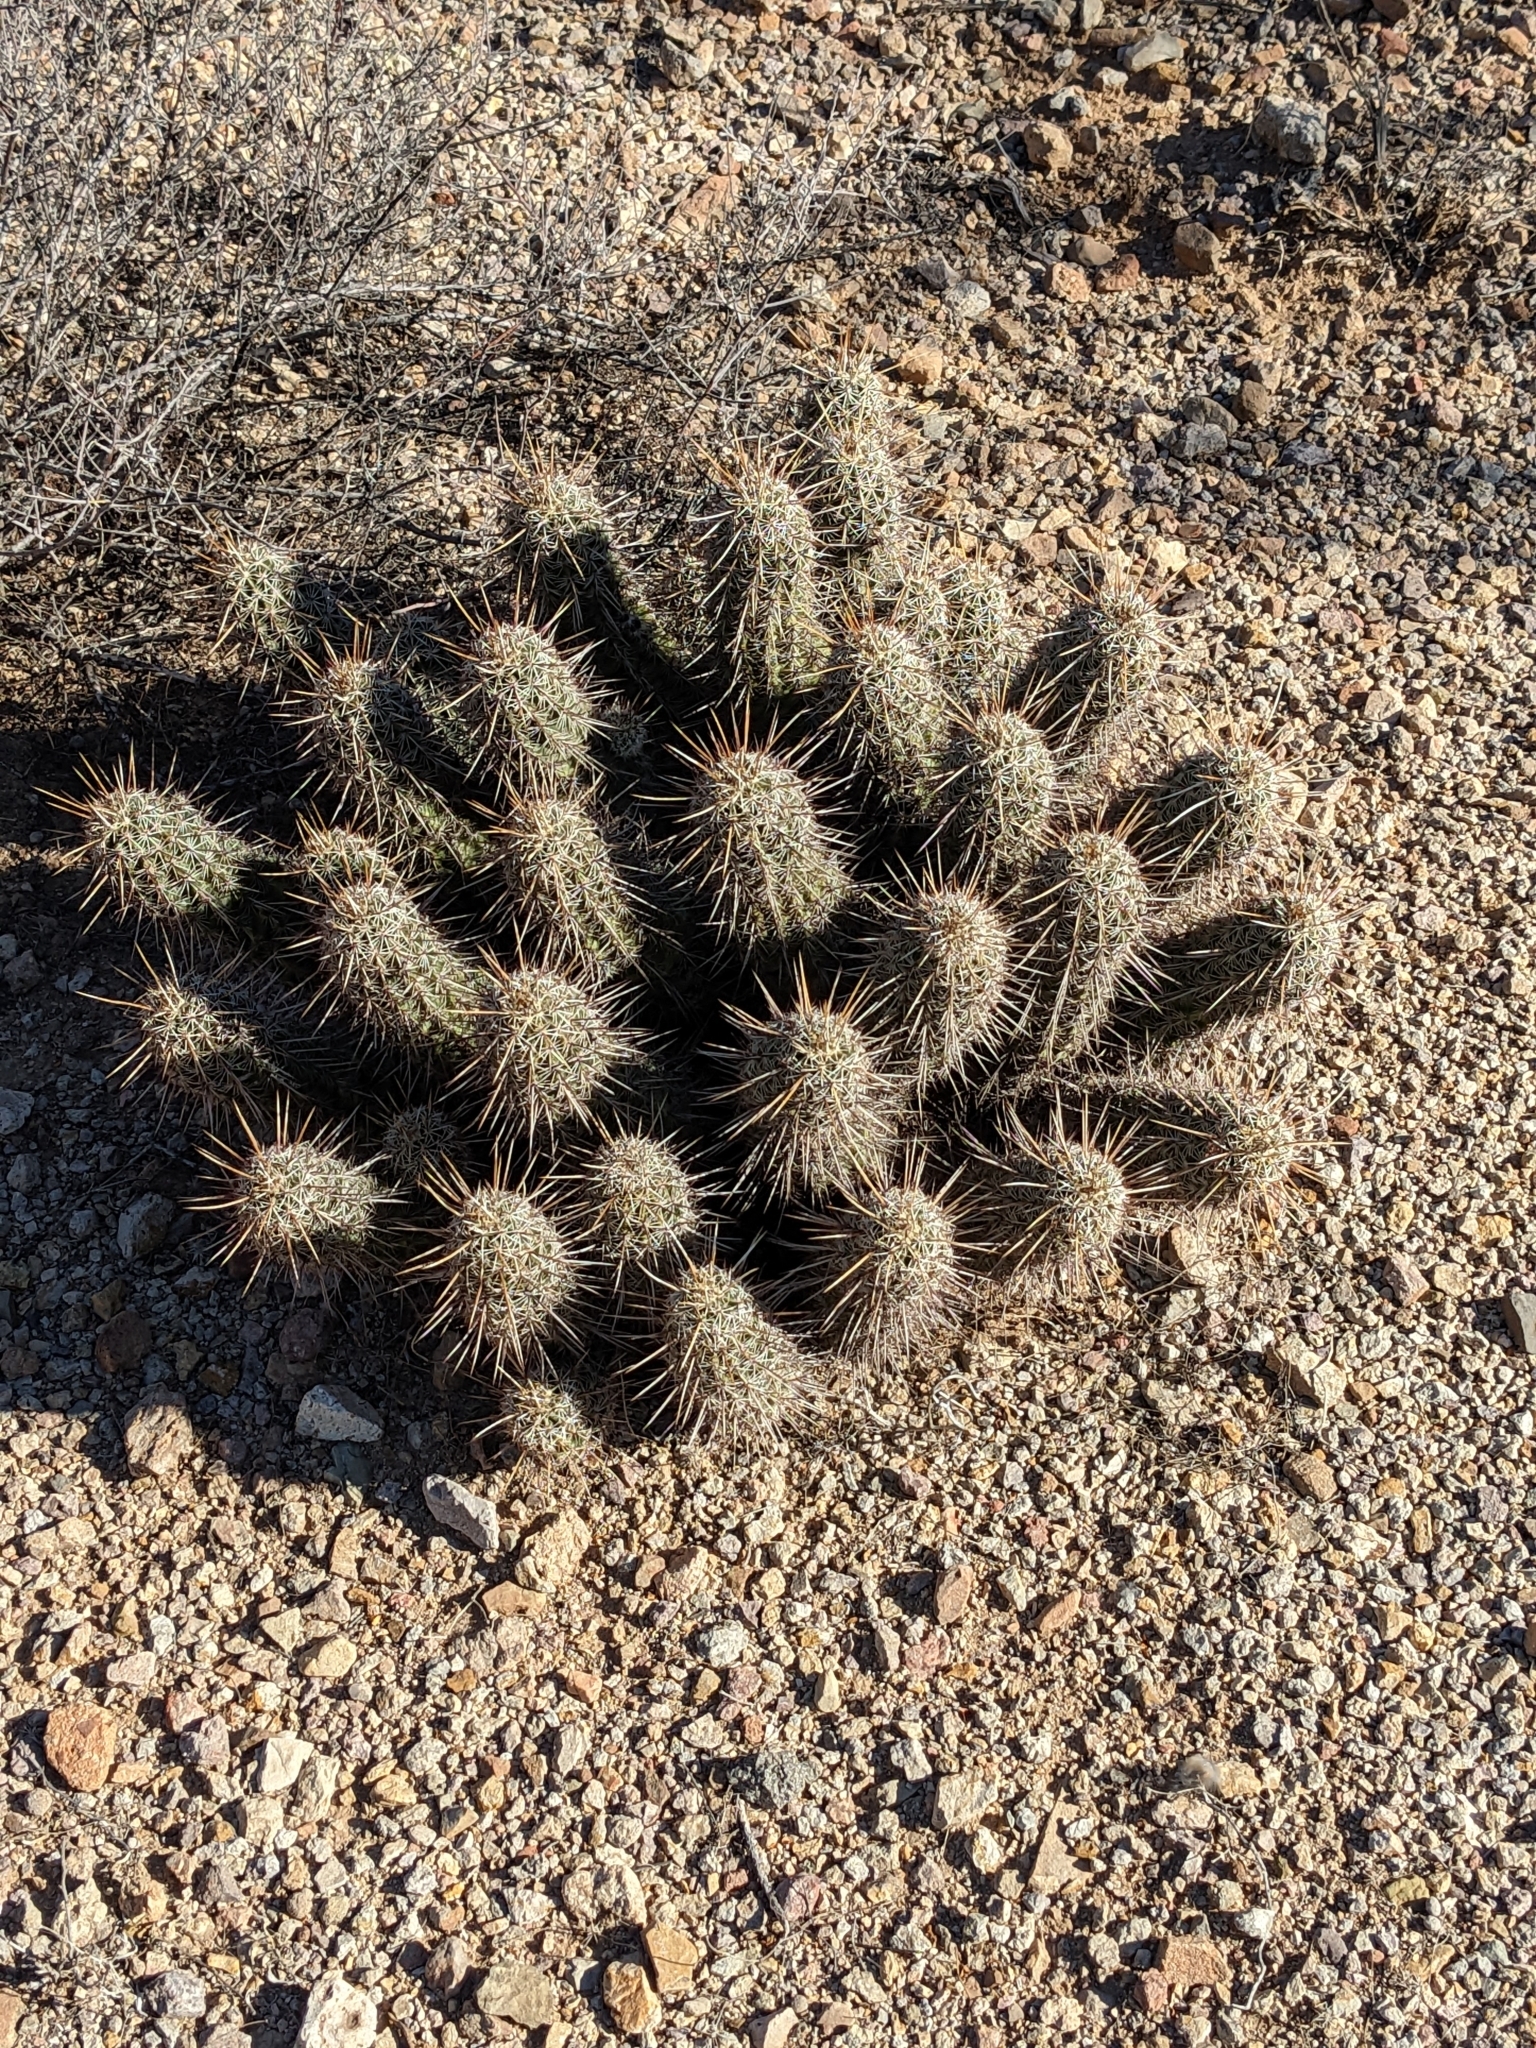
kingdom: Plantae
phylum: Tracheophyta
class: Magnoliopsida
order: Caryophyllales
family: Cactaceae
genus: Echinocereus
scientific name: Echinocereus fasciculatus
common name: Bundle hedgehog
